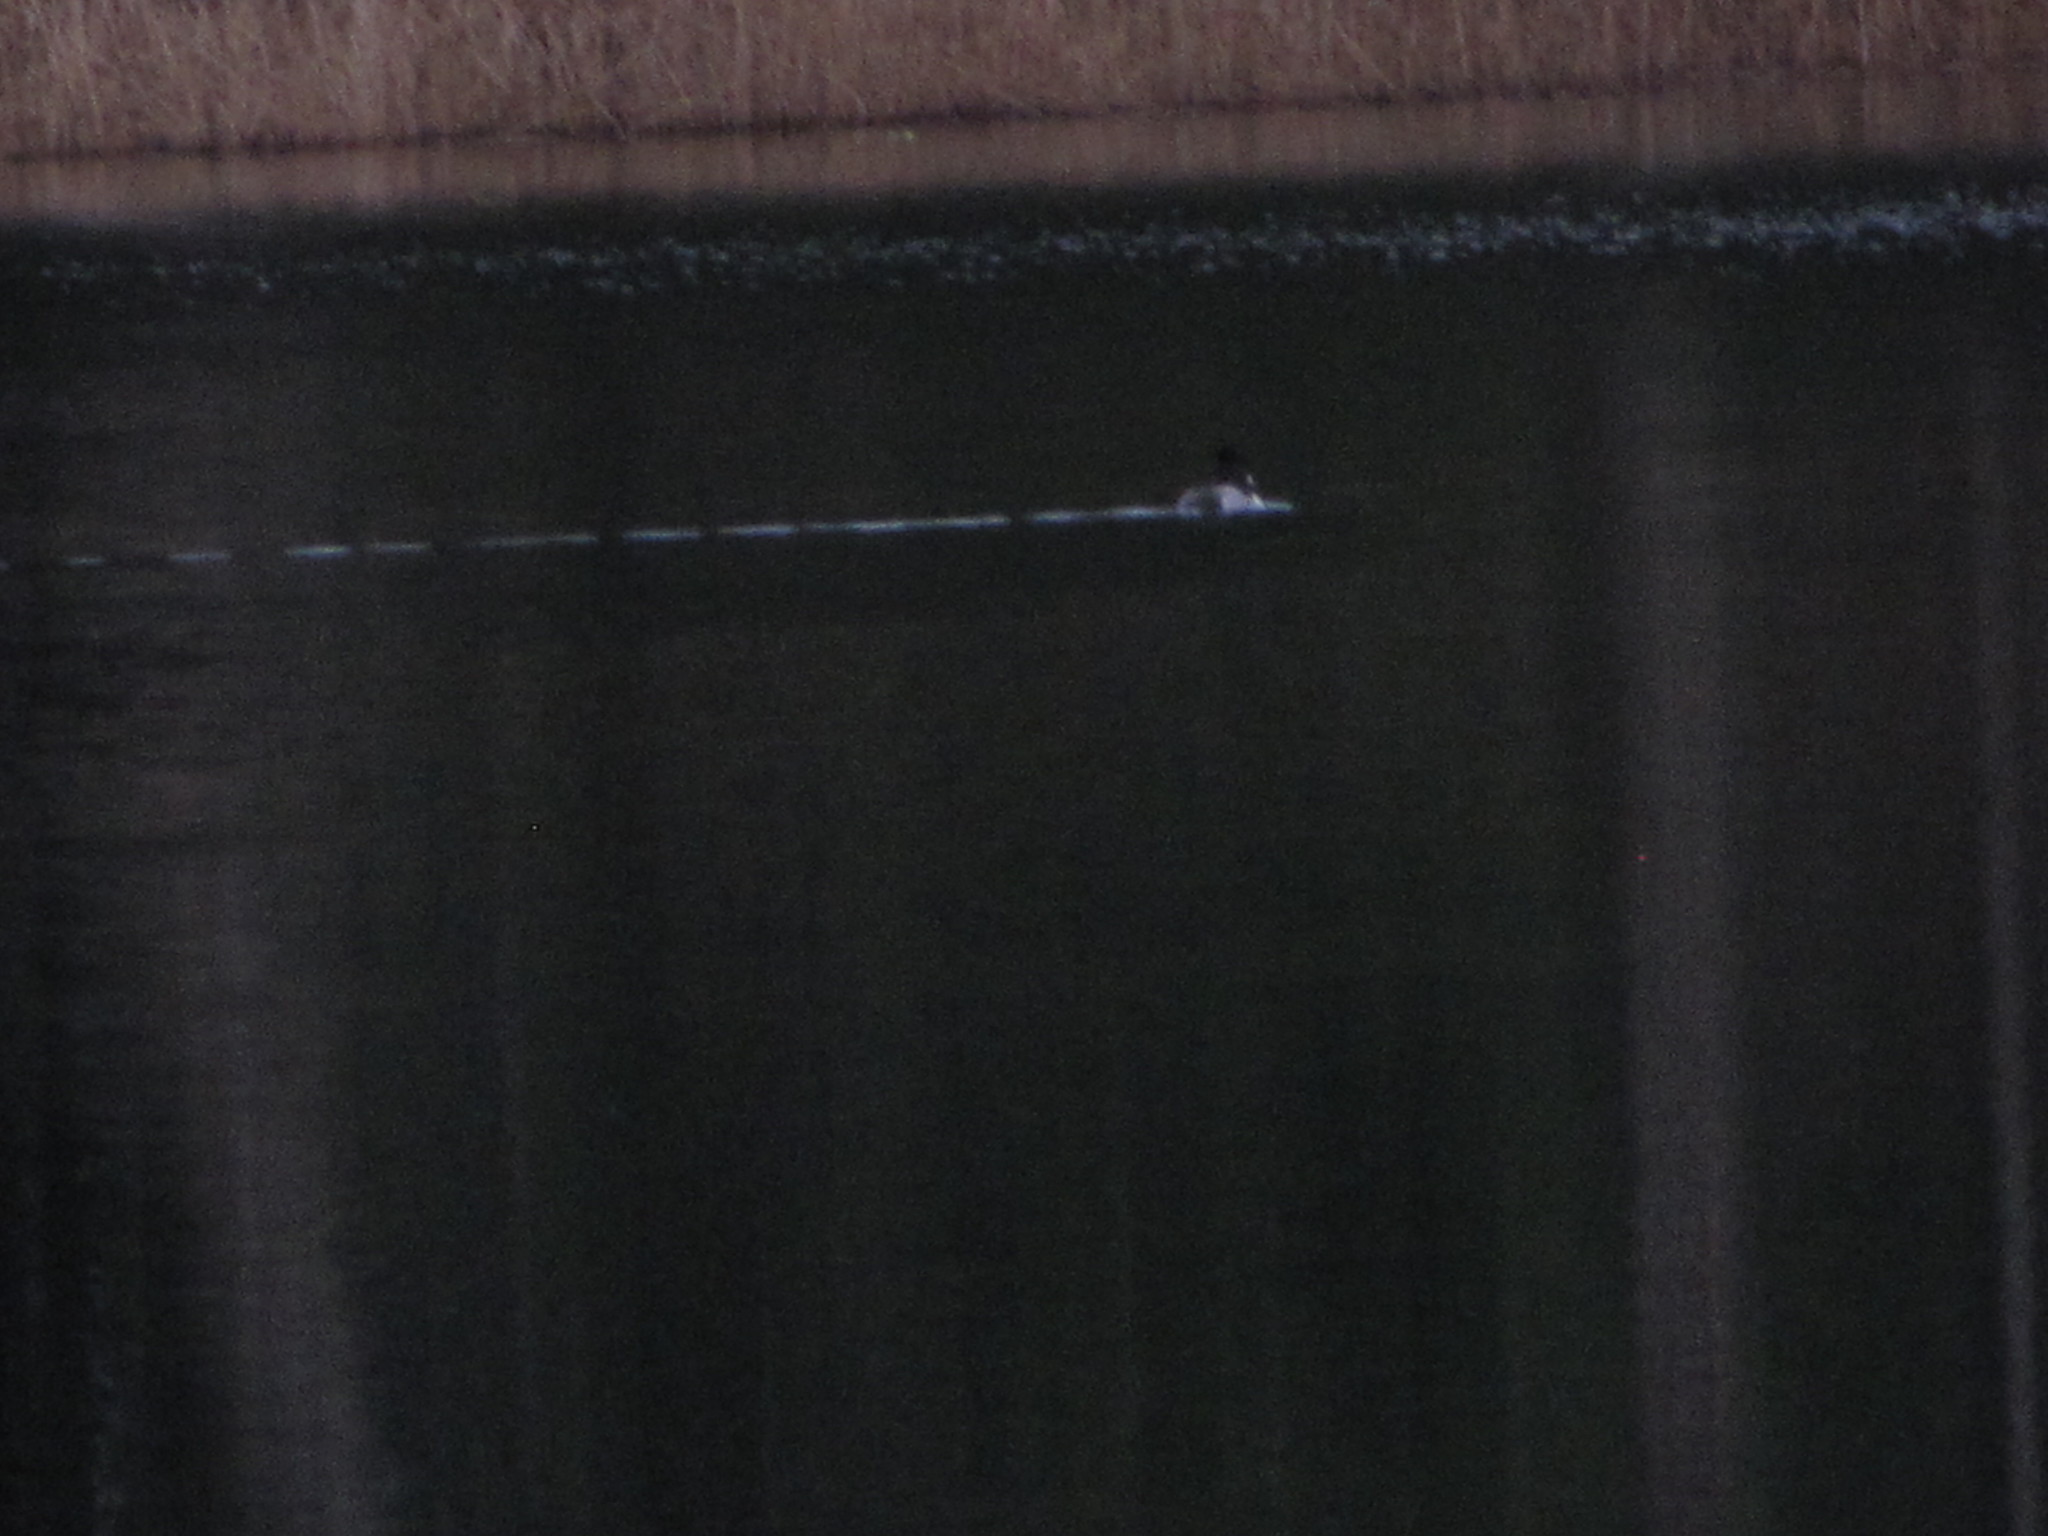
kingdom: Animalia
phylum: Chordata
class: Aves
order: Anseriformes
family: Anatidae
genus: Aythya
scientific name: Aythya collaris
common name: Ring-necked duck
